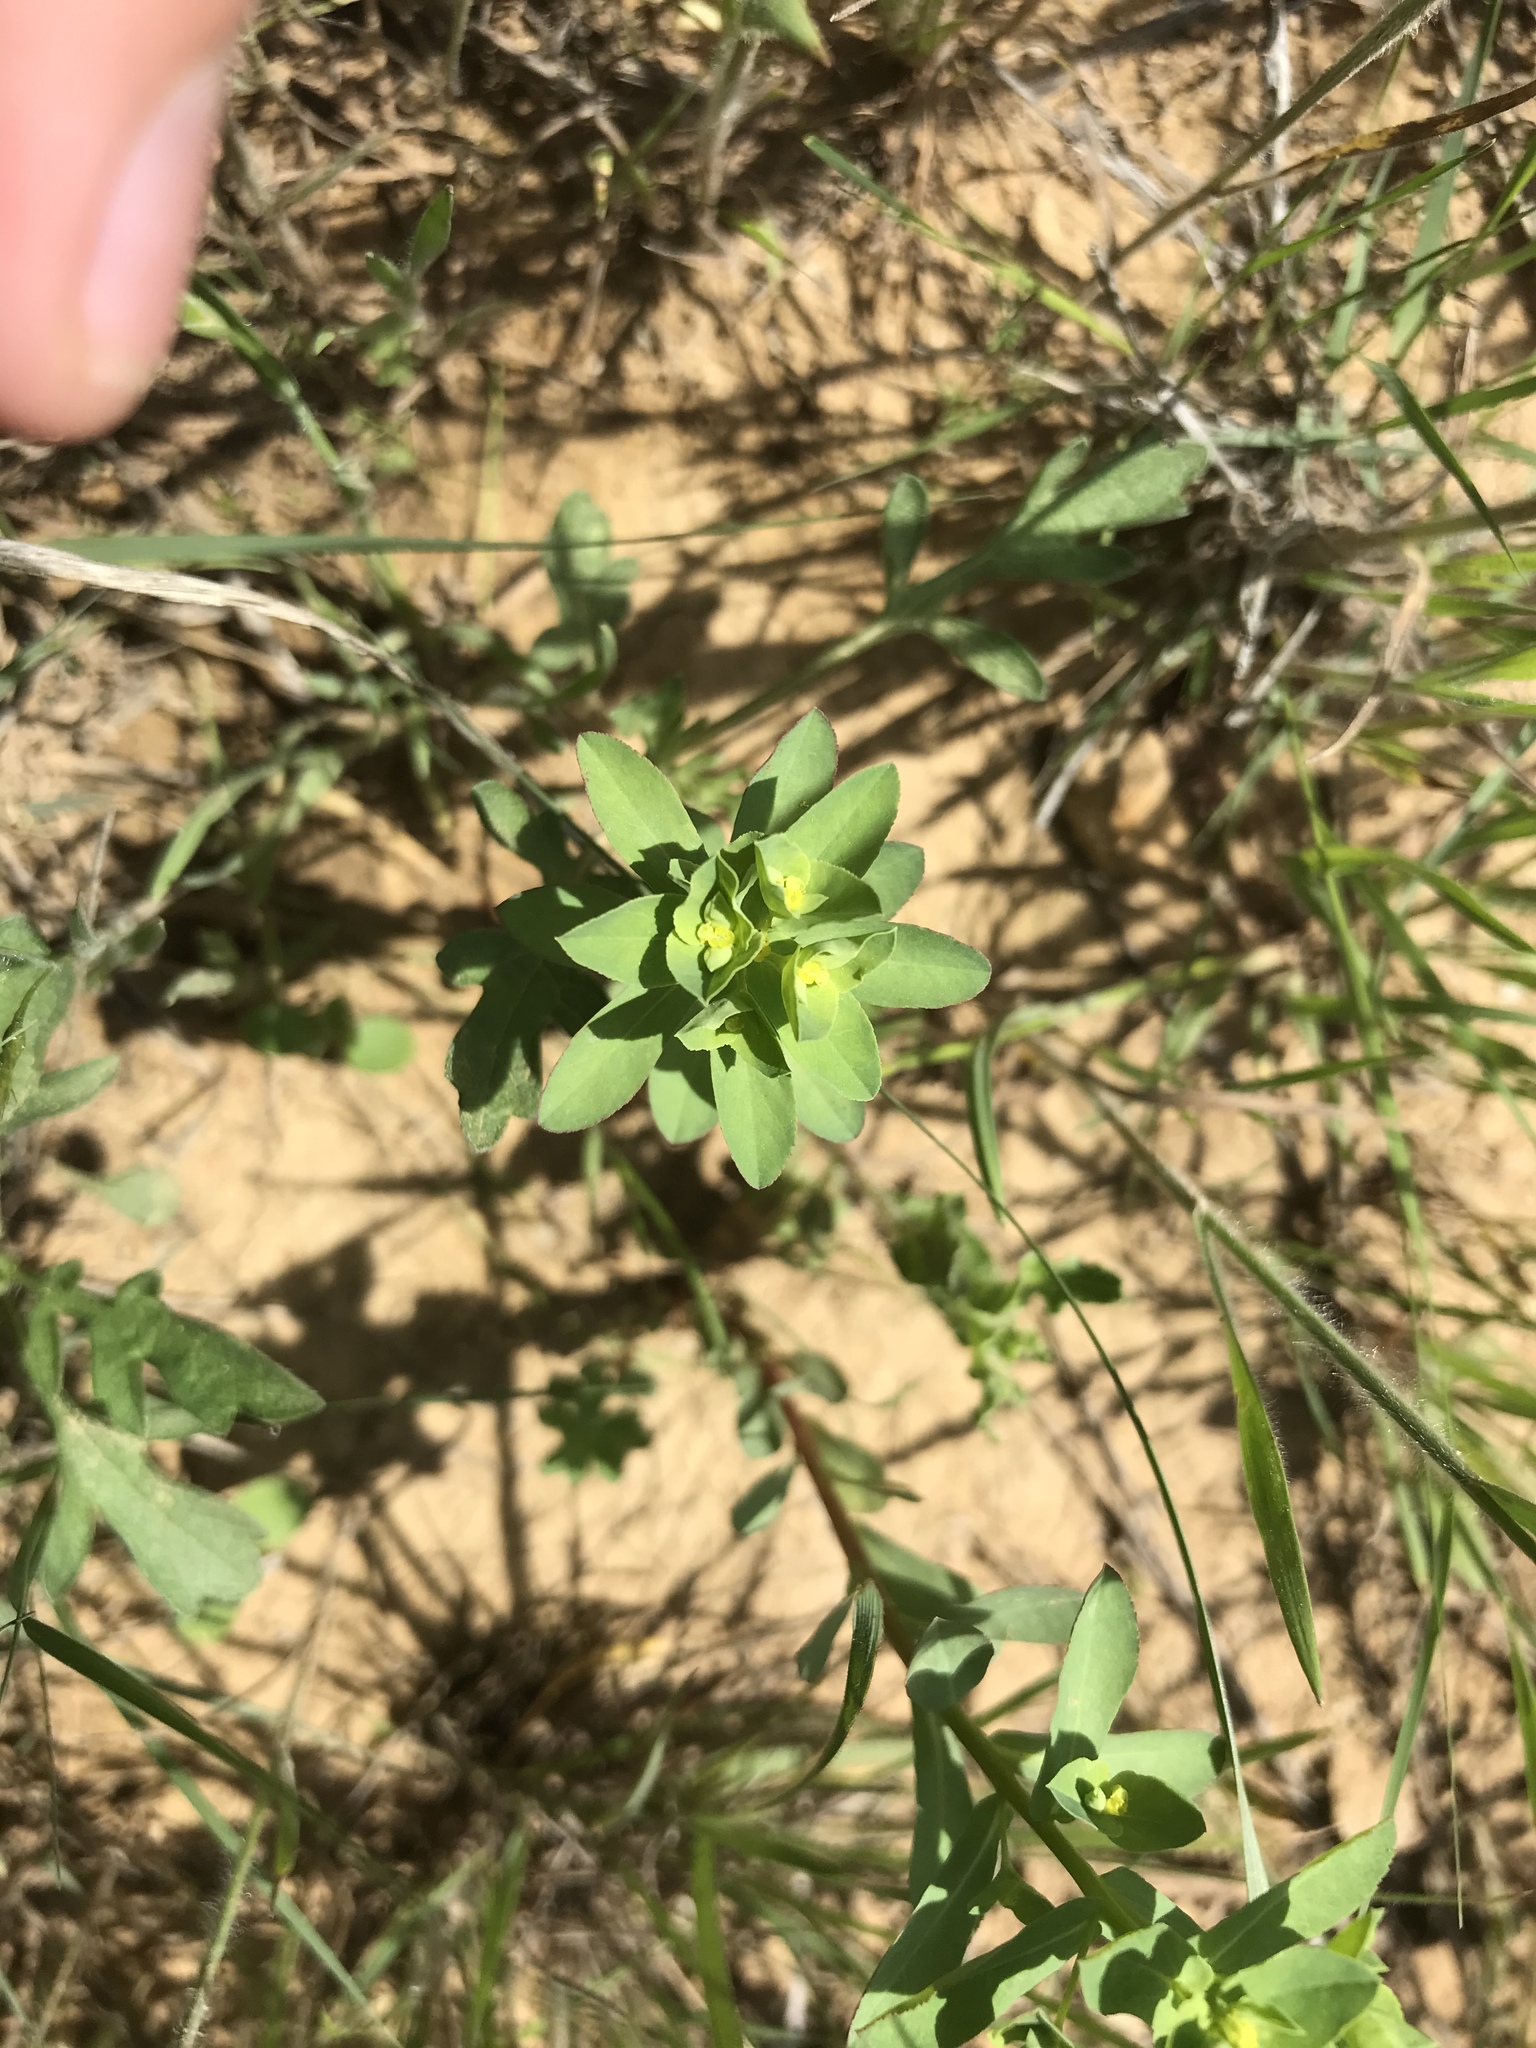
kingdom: Plantae
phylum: Tracheophyta
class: Magnoliopsida
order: Malpighiales
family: Euphorbiaceae
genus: Euphorbia
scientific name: Euphorbia spathulata
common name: Blunt spurge
